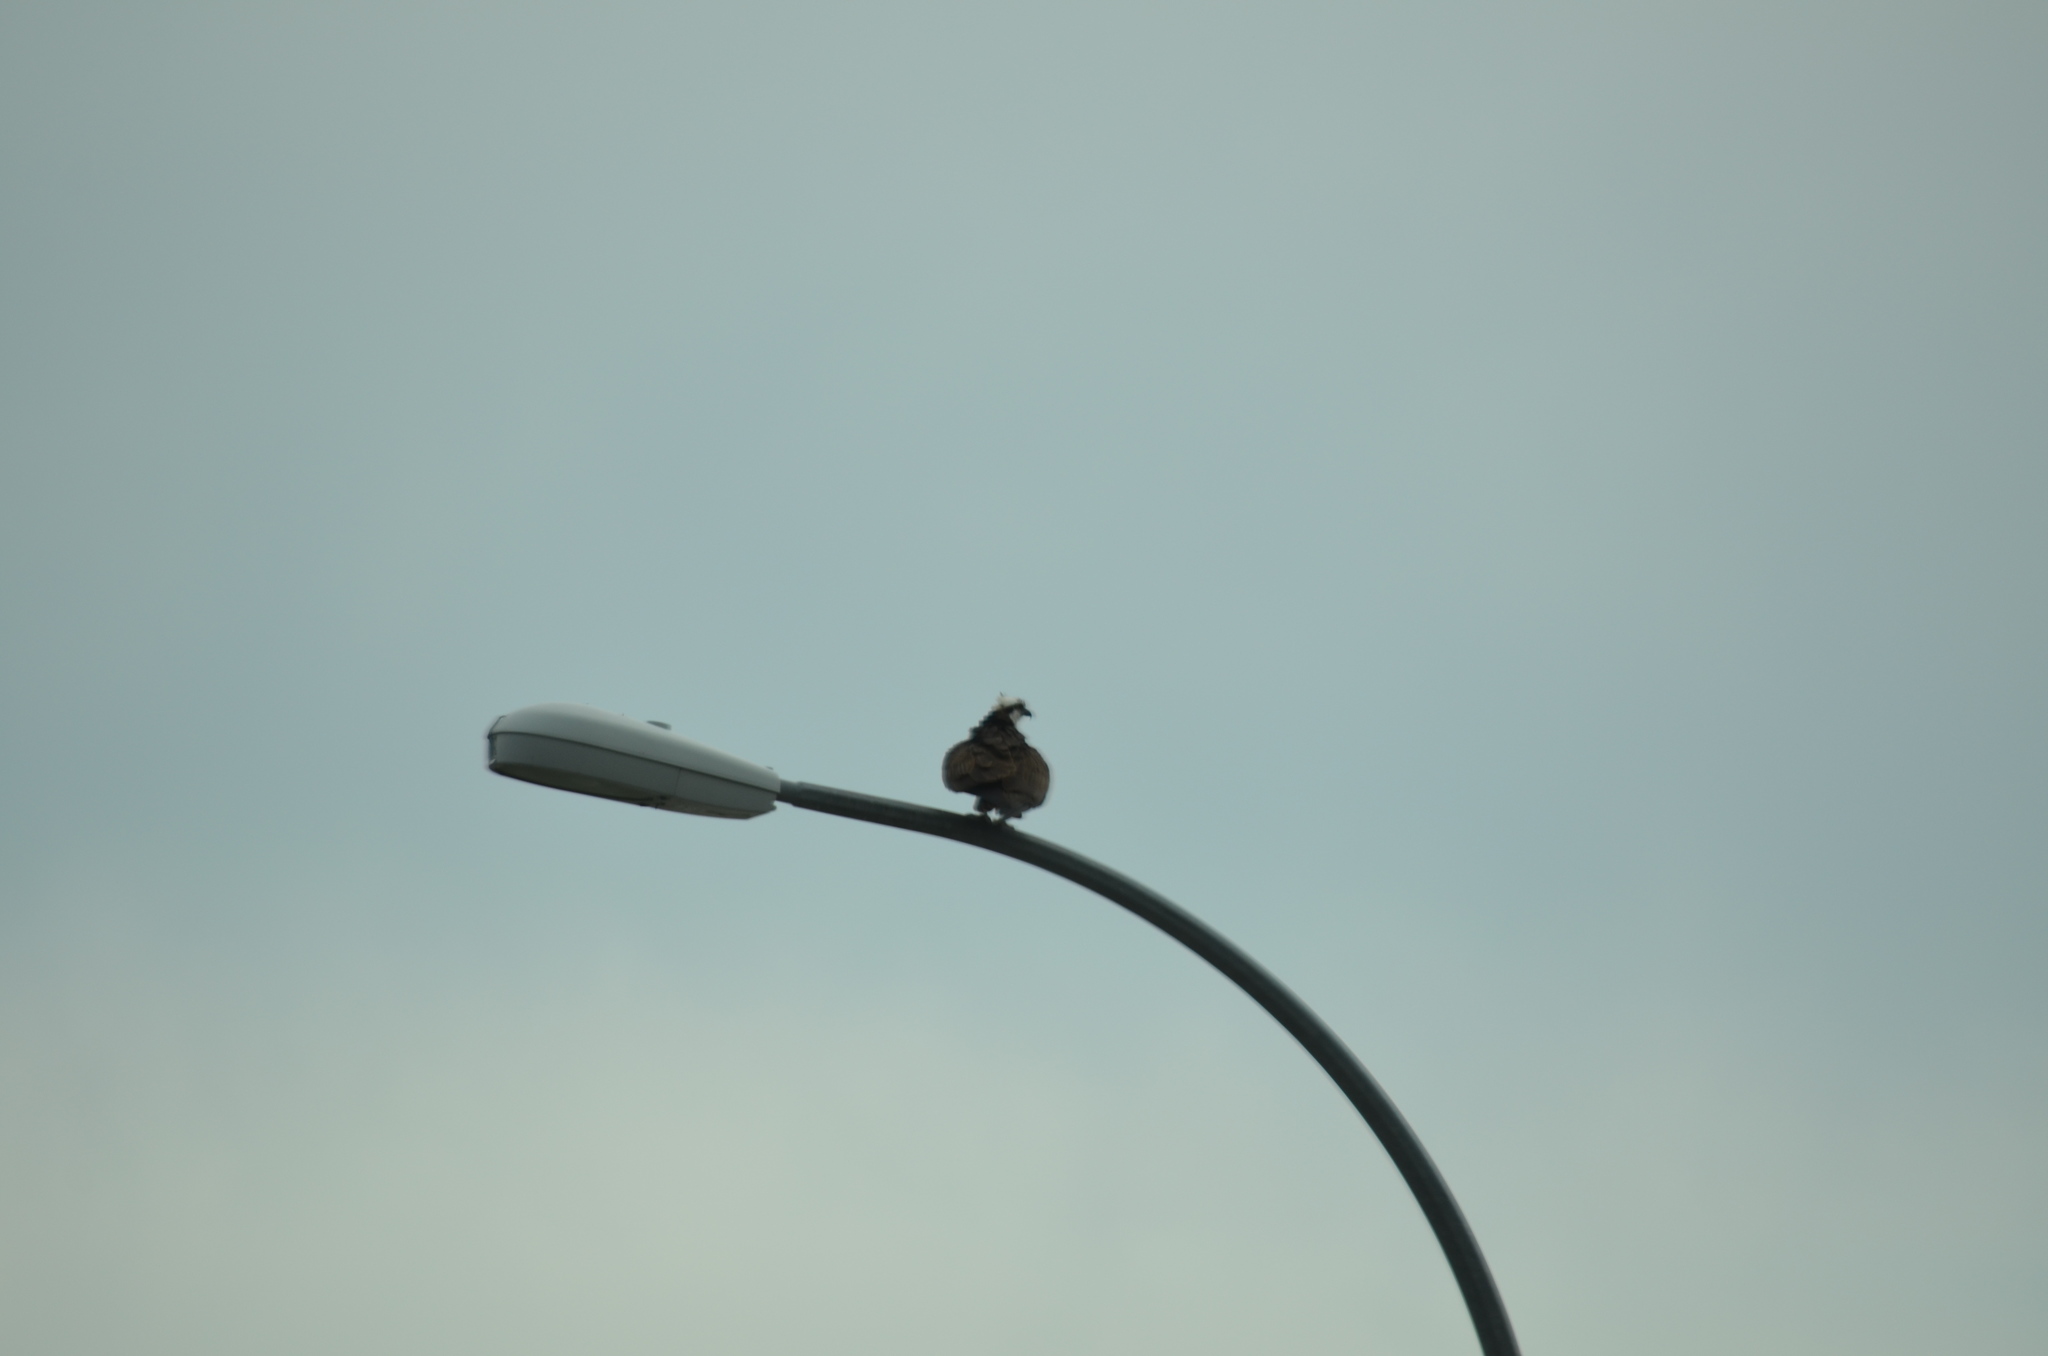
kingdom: Animalia
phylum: Chordata
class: Aves
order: Accipitriformes
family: Pandionidae
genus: Pandion
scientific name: Pandion haliaetus
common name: Osprey
